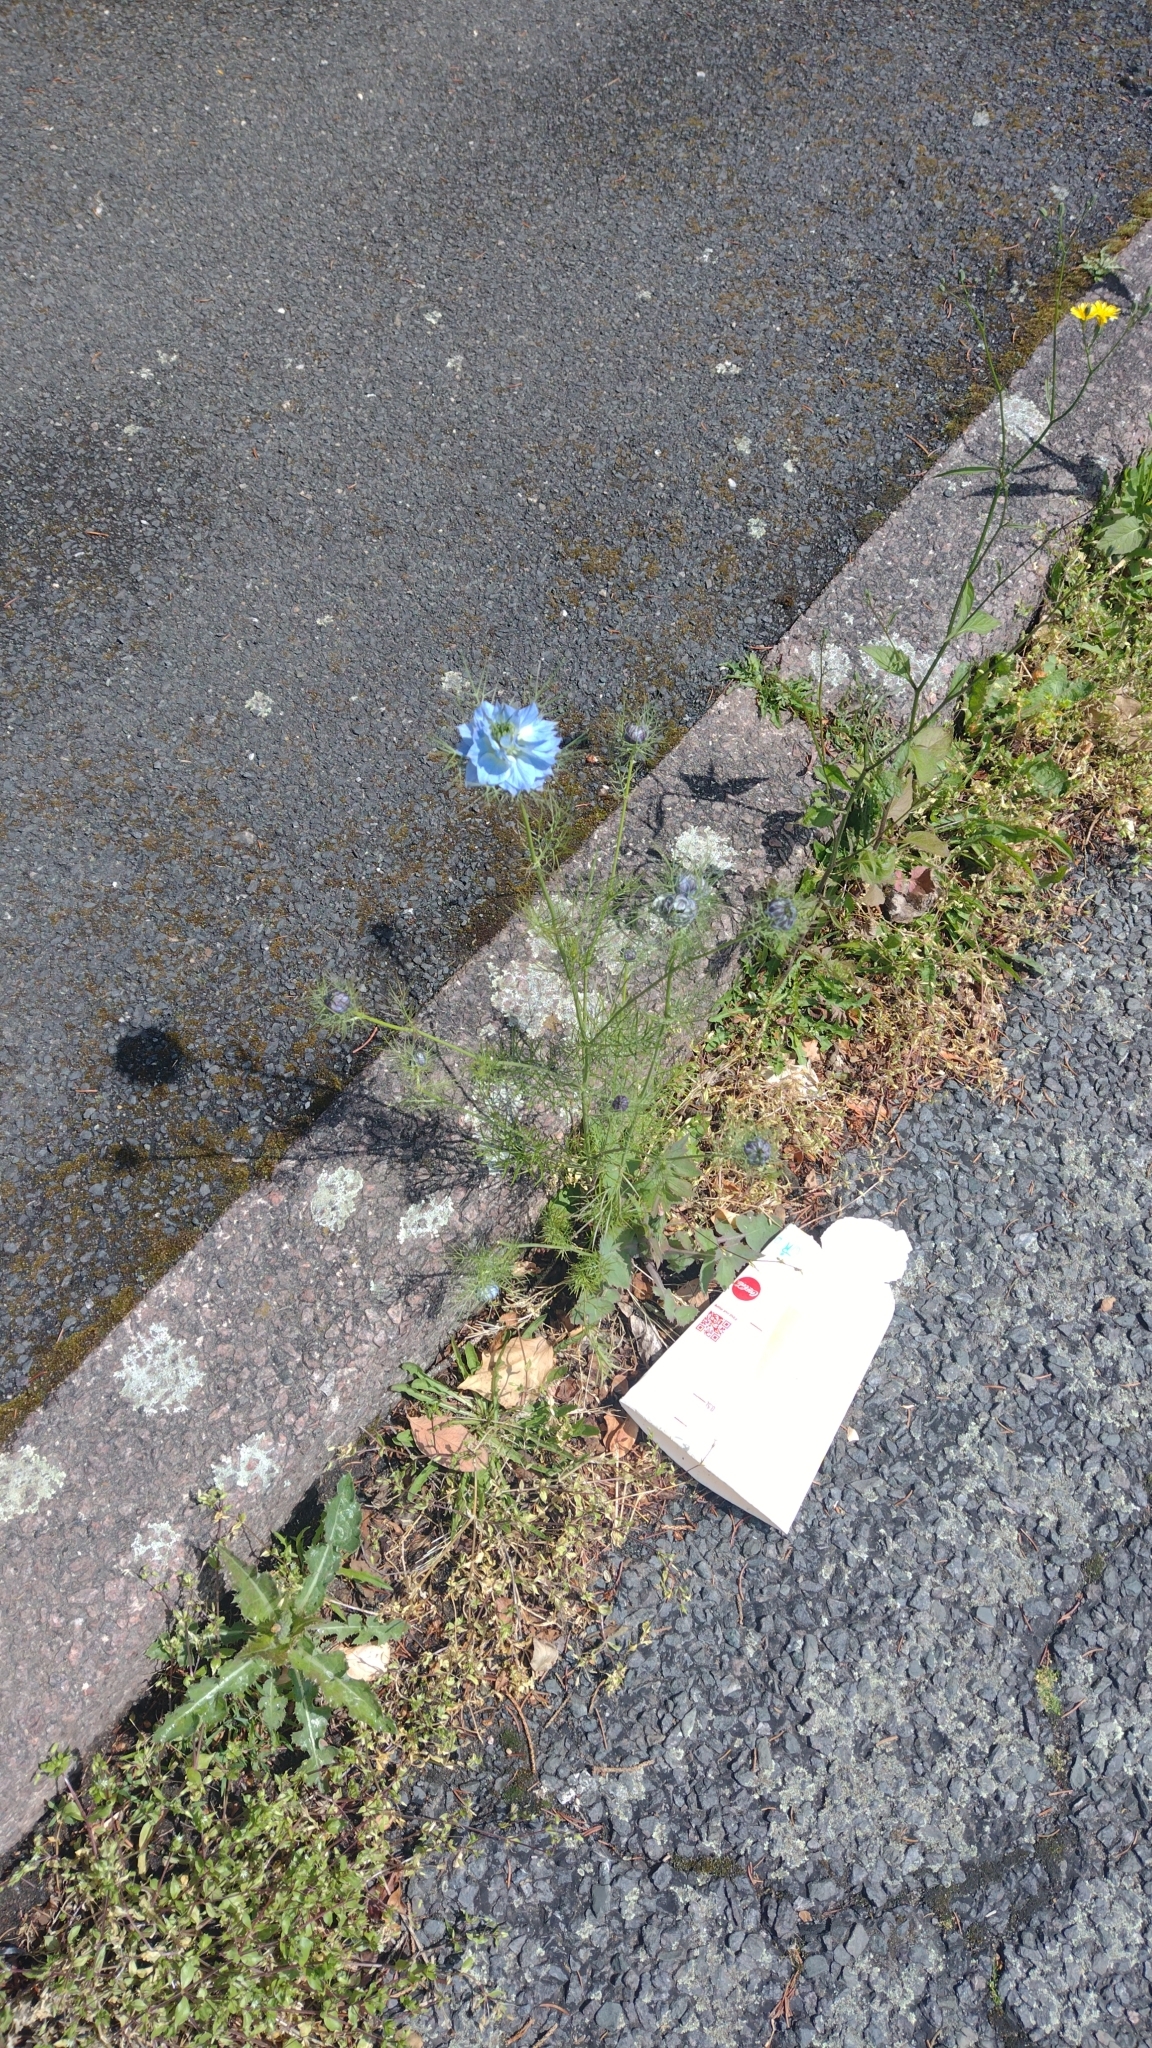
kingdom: Plantae
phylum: Tracheophyta
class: Magnoliopsida
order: Ranunculales
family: Ranunculaceae
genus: Nigella
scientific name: Nigella damascena
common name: Love-in-a-mist
